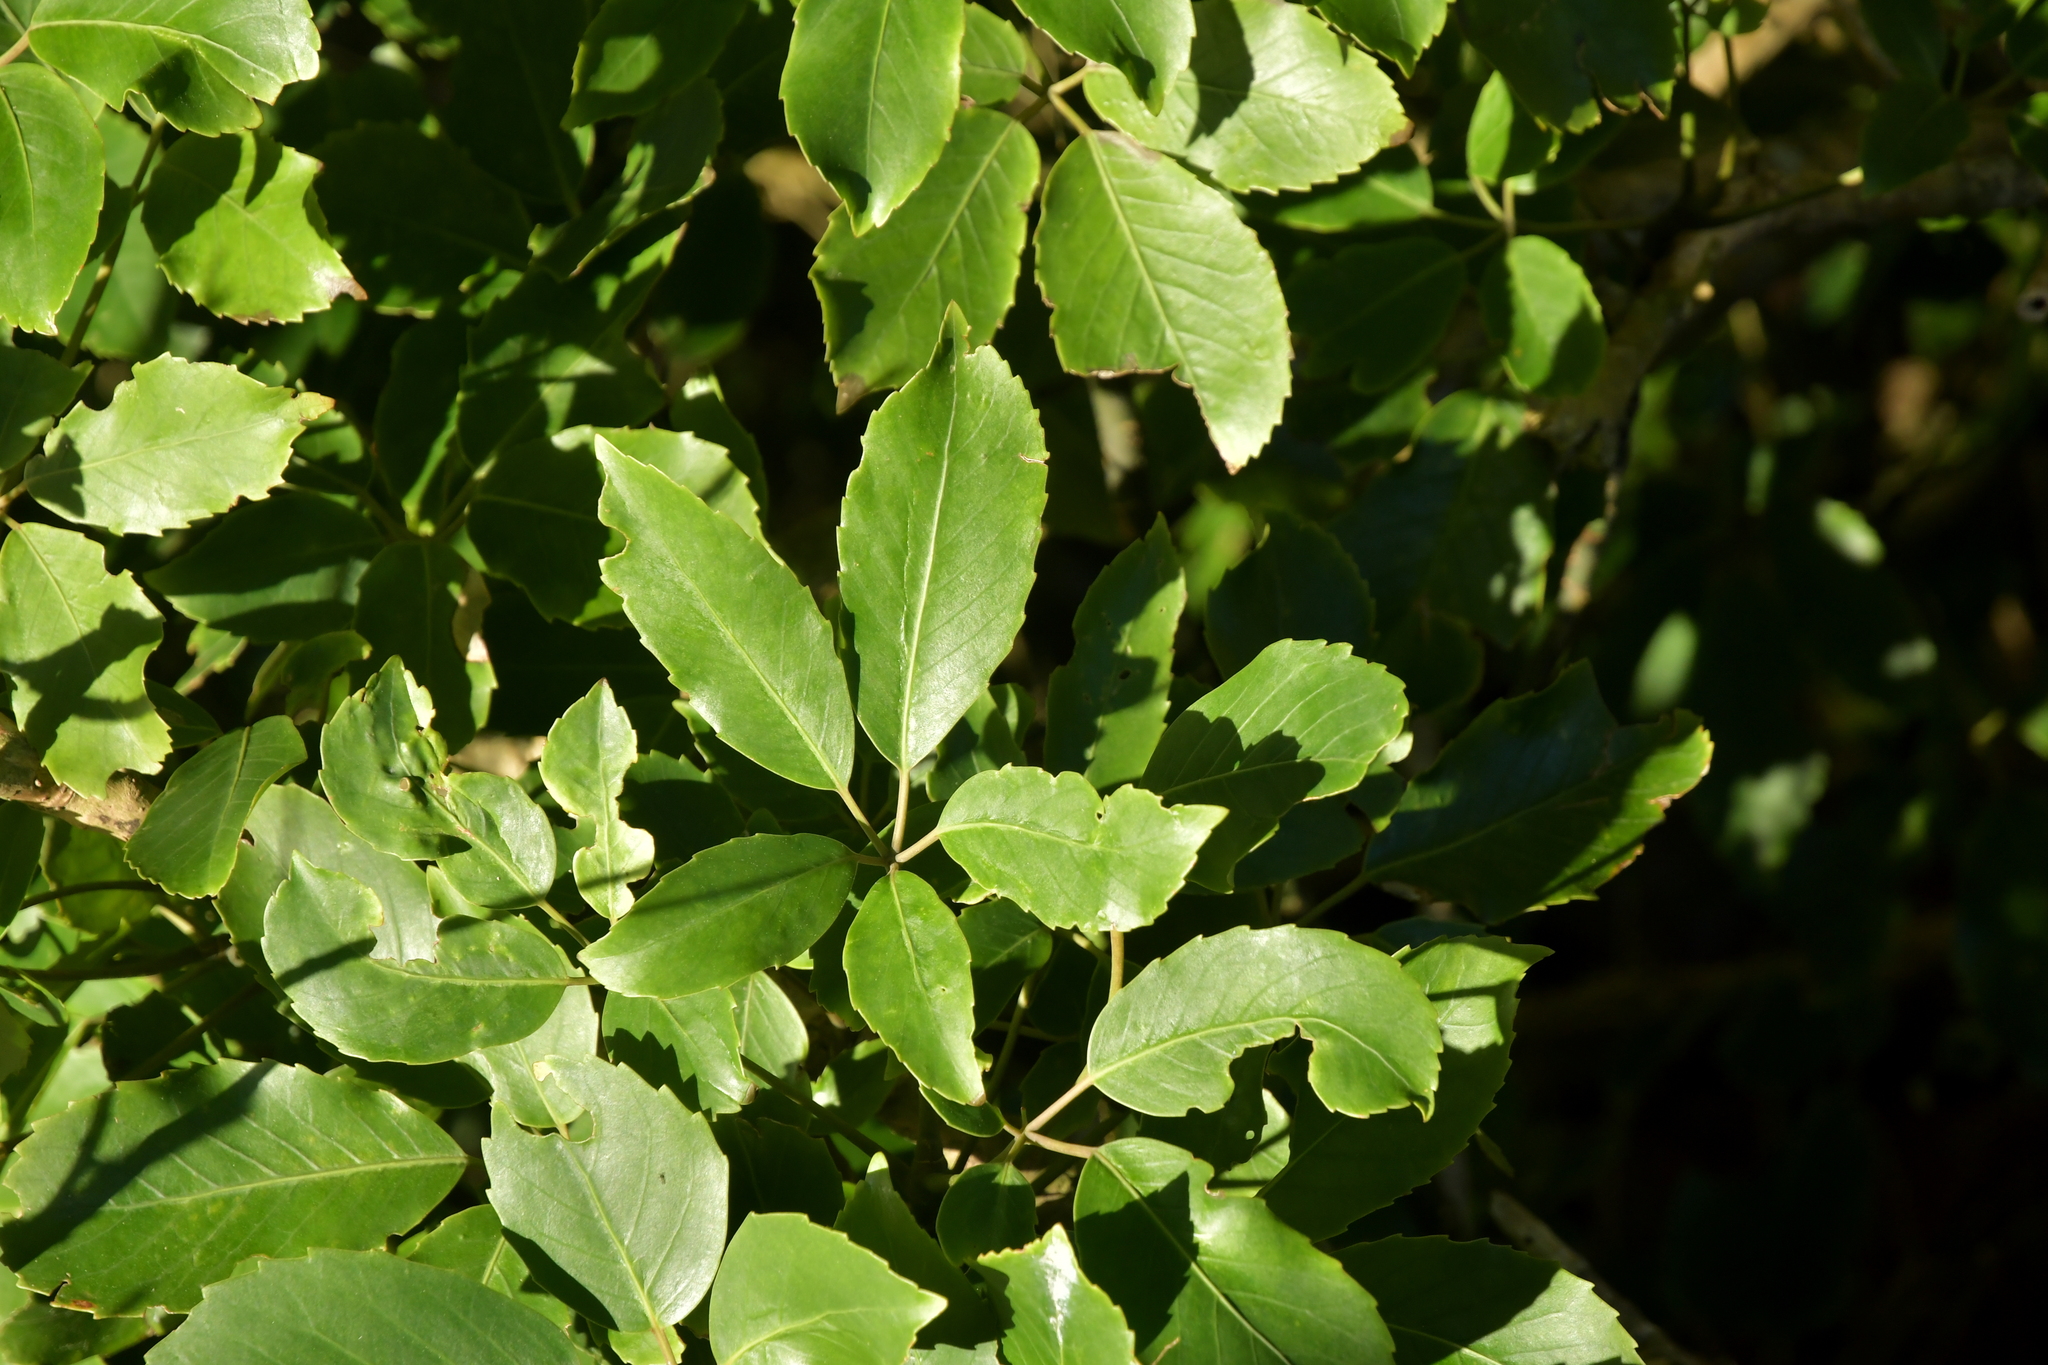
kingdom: Plantae
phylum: Tracheophyta
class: Magnoliopsida
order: Apiales
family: Araliaceae
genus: Neopanax
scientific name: Neopanax arboreus
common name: Five-fingers
